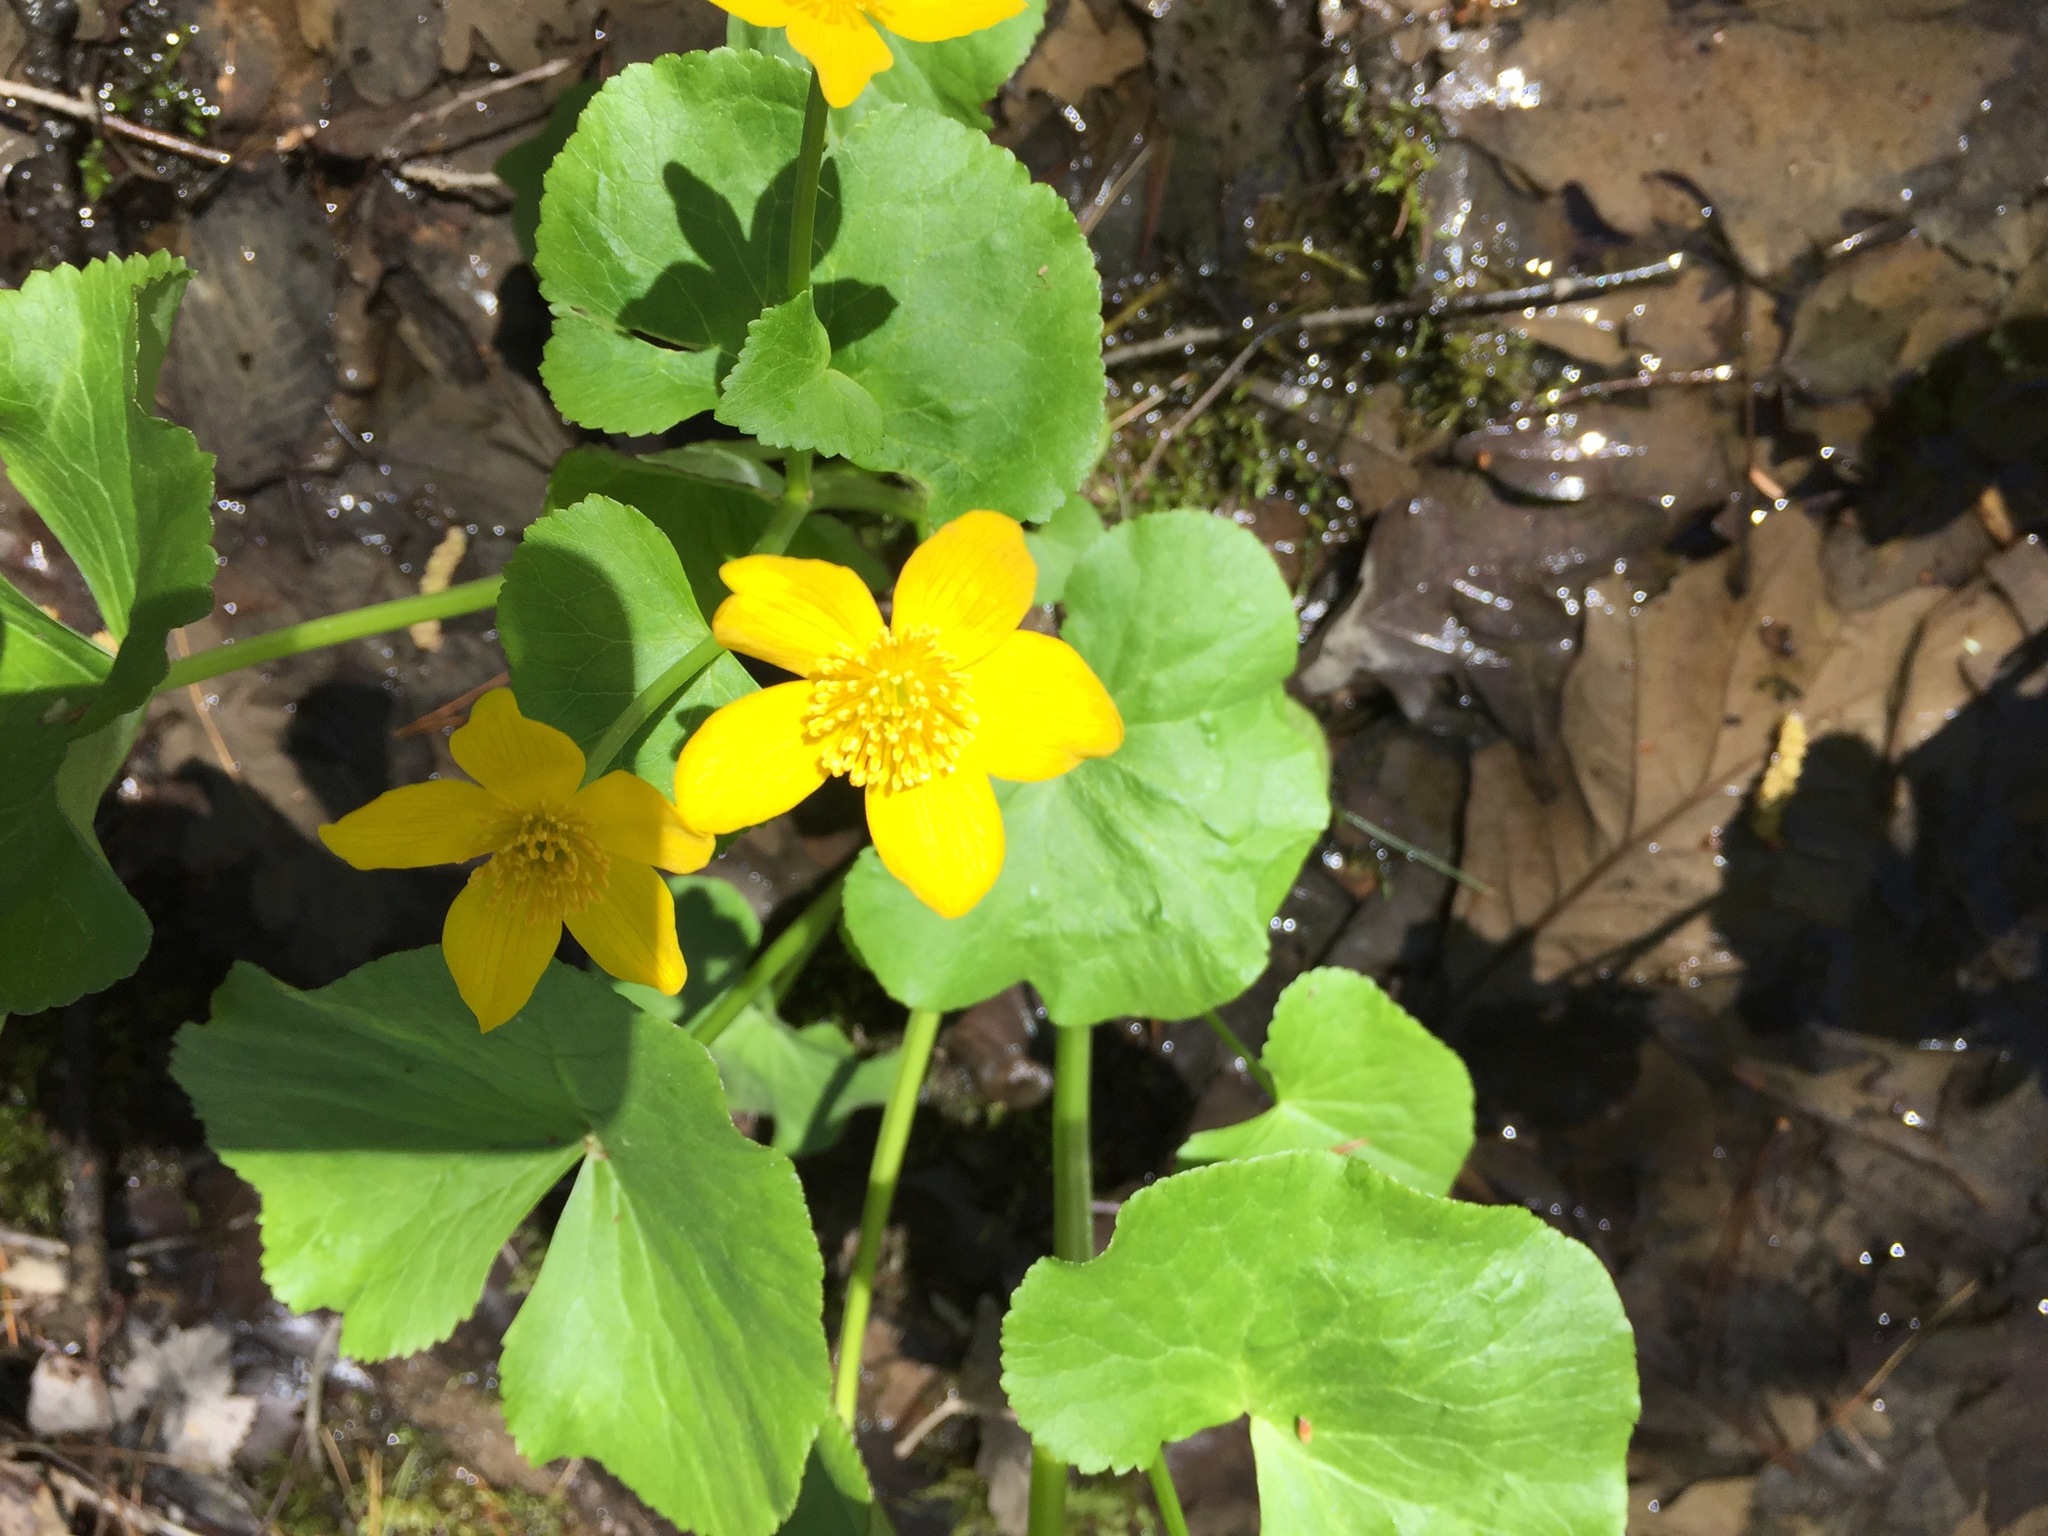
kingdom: Plantae
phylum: Tracheophyta
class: Magnoliopsida
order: Ranunculales
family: Ranunculaceae
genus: Caltha
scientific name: Caltha palustris
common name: Marsh marigold
